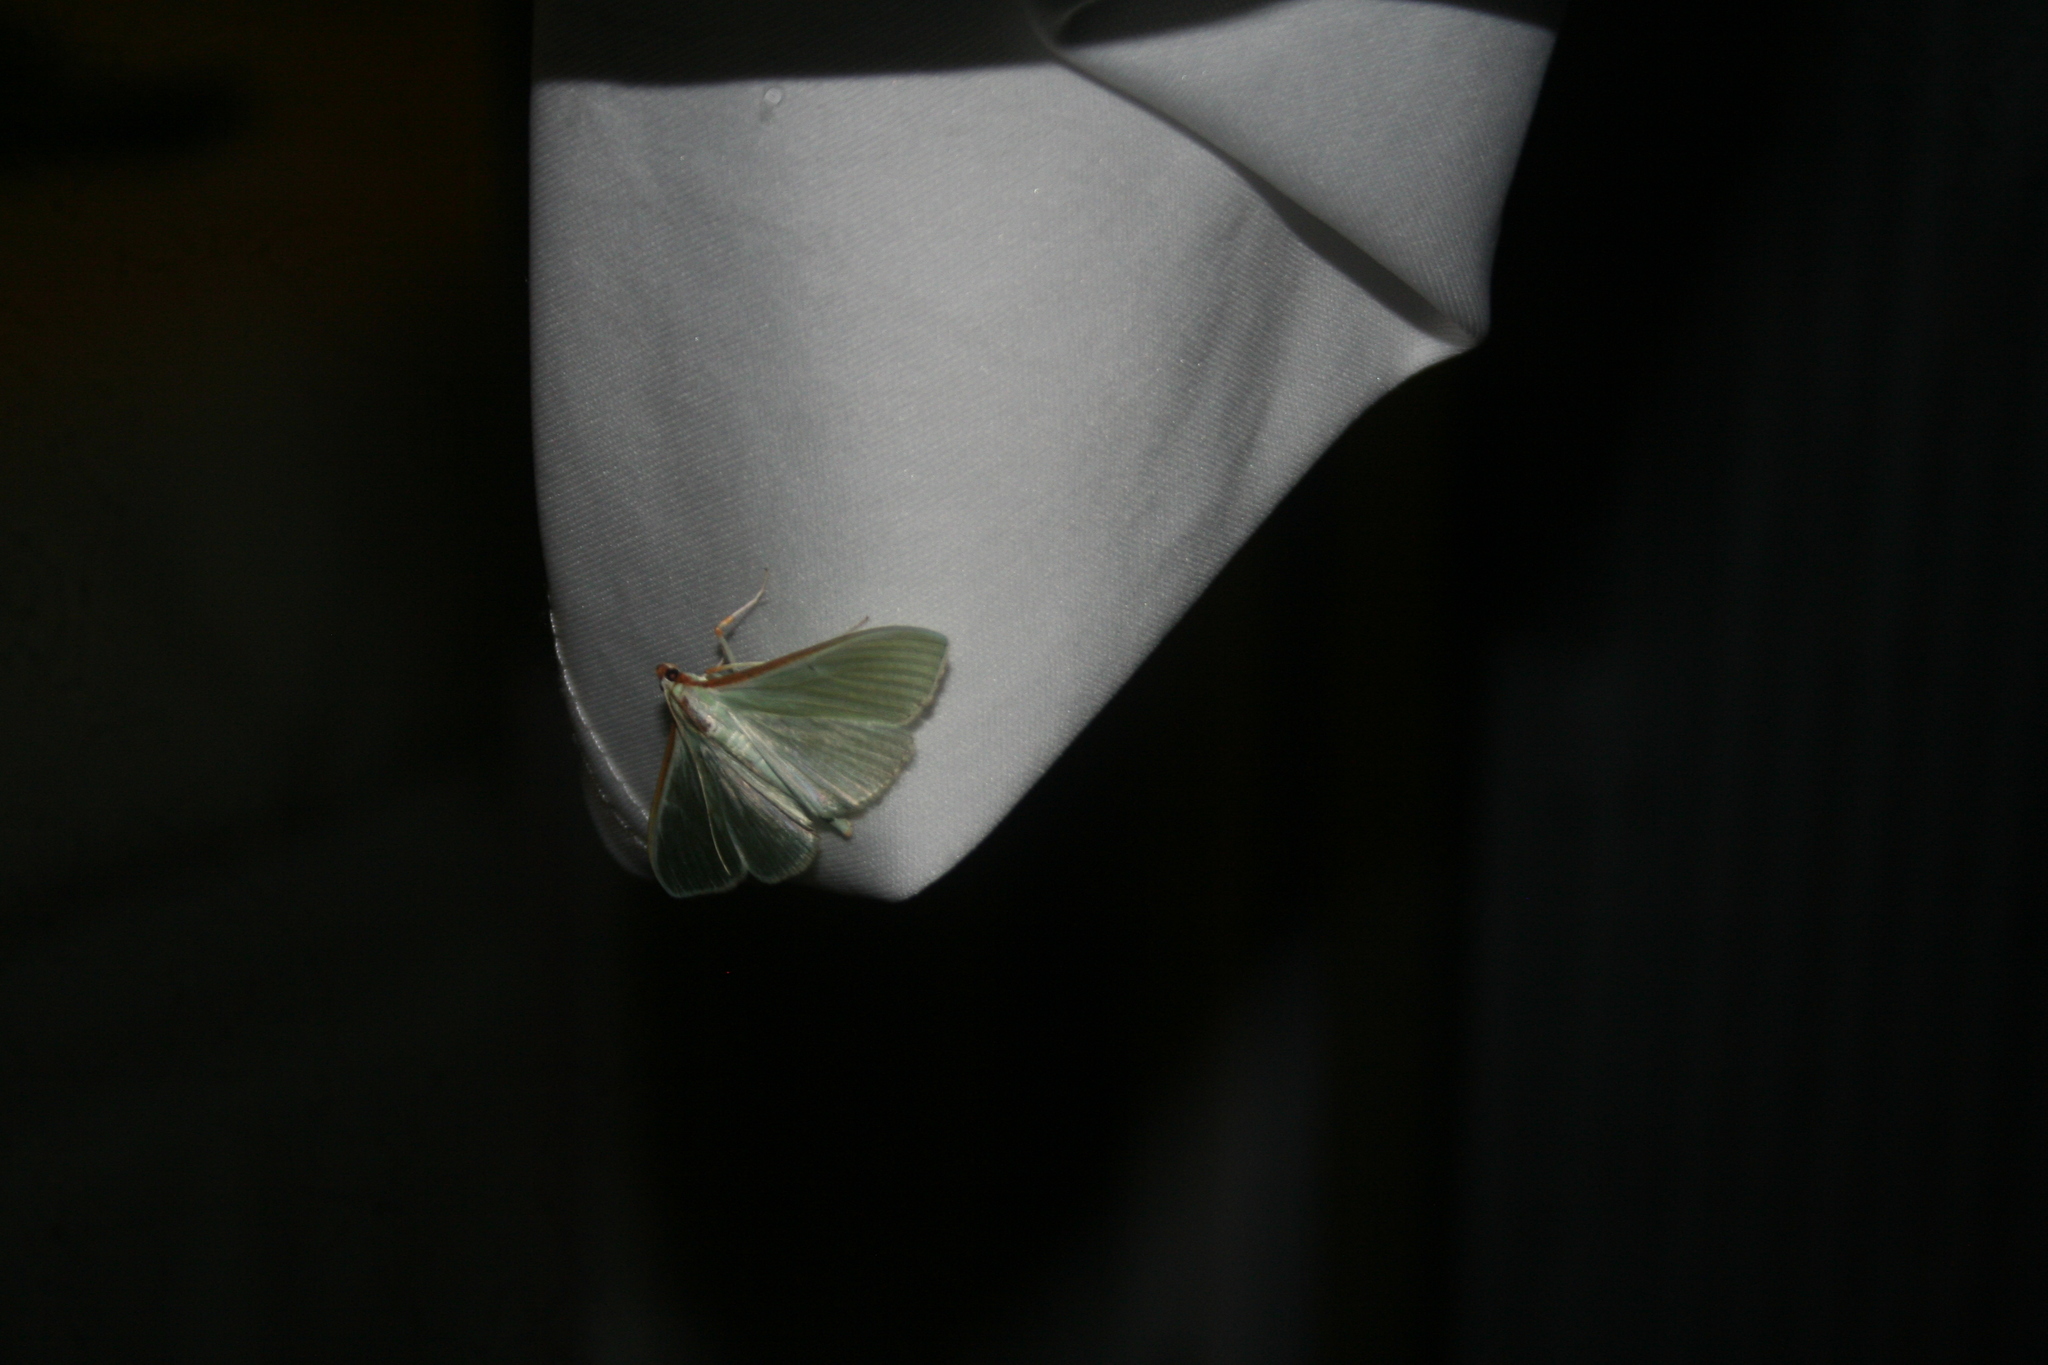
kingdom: Animalia
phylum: Arthropoda
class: Insecta
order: Lepidoptera
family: Crambidae
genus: Palpita
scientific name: Palpita vitrealis
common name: Olive-tree pearl
